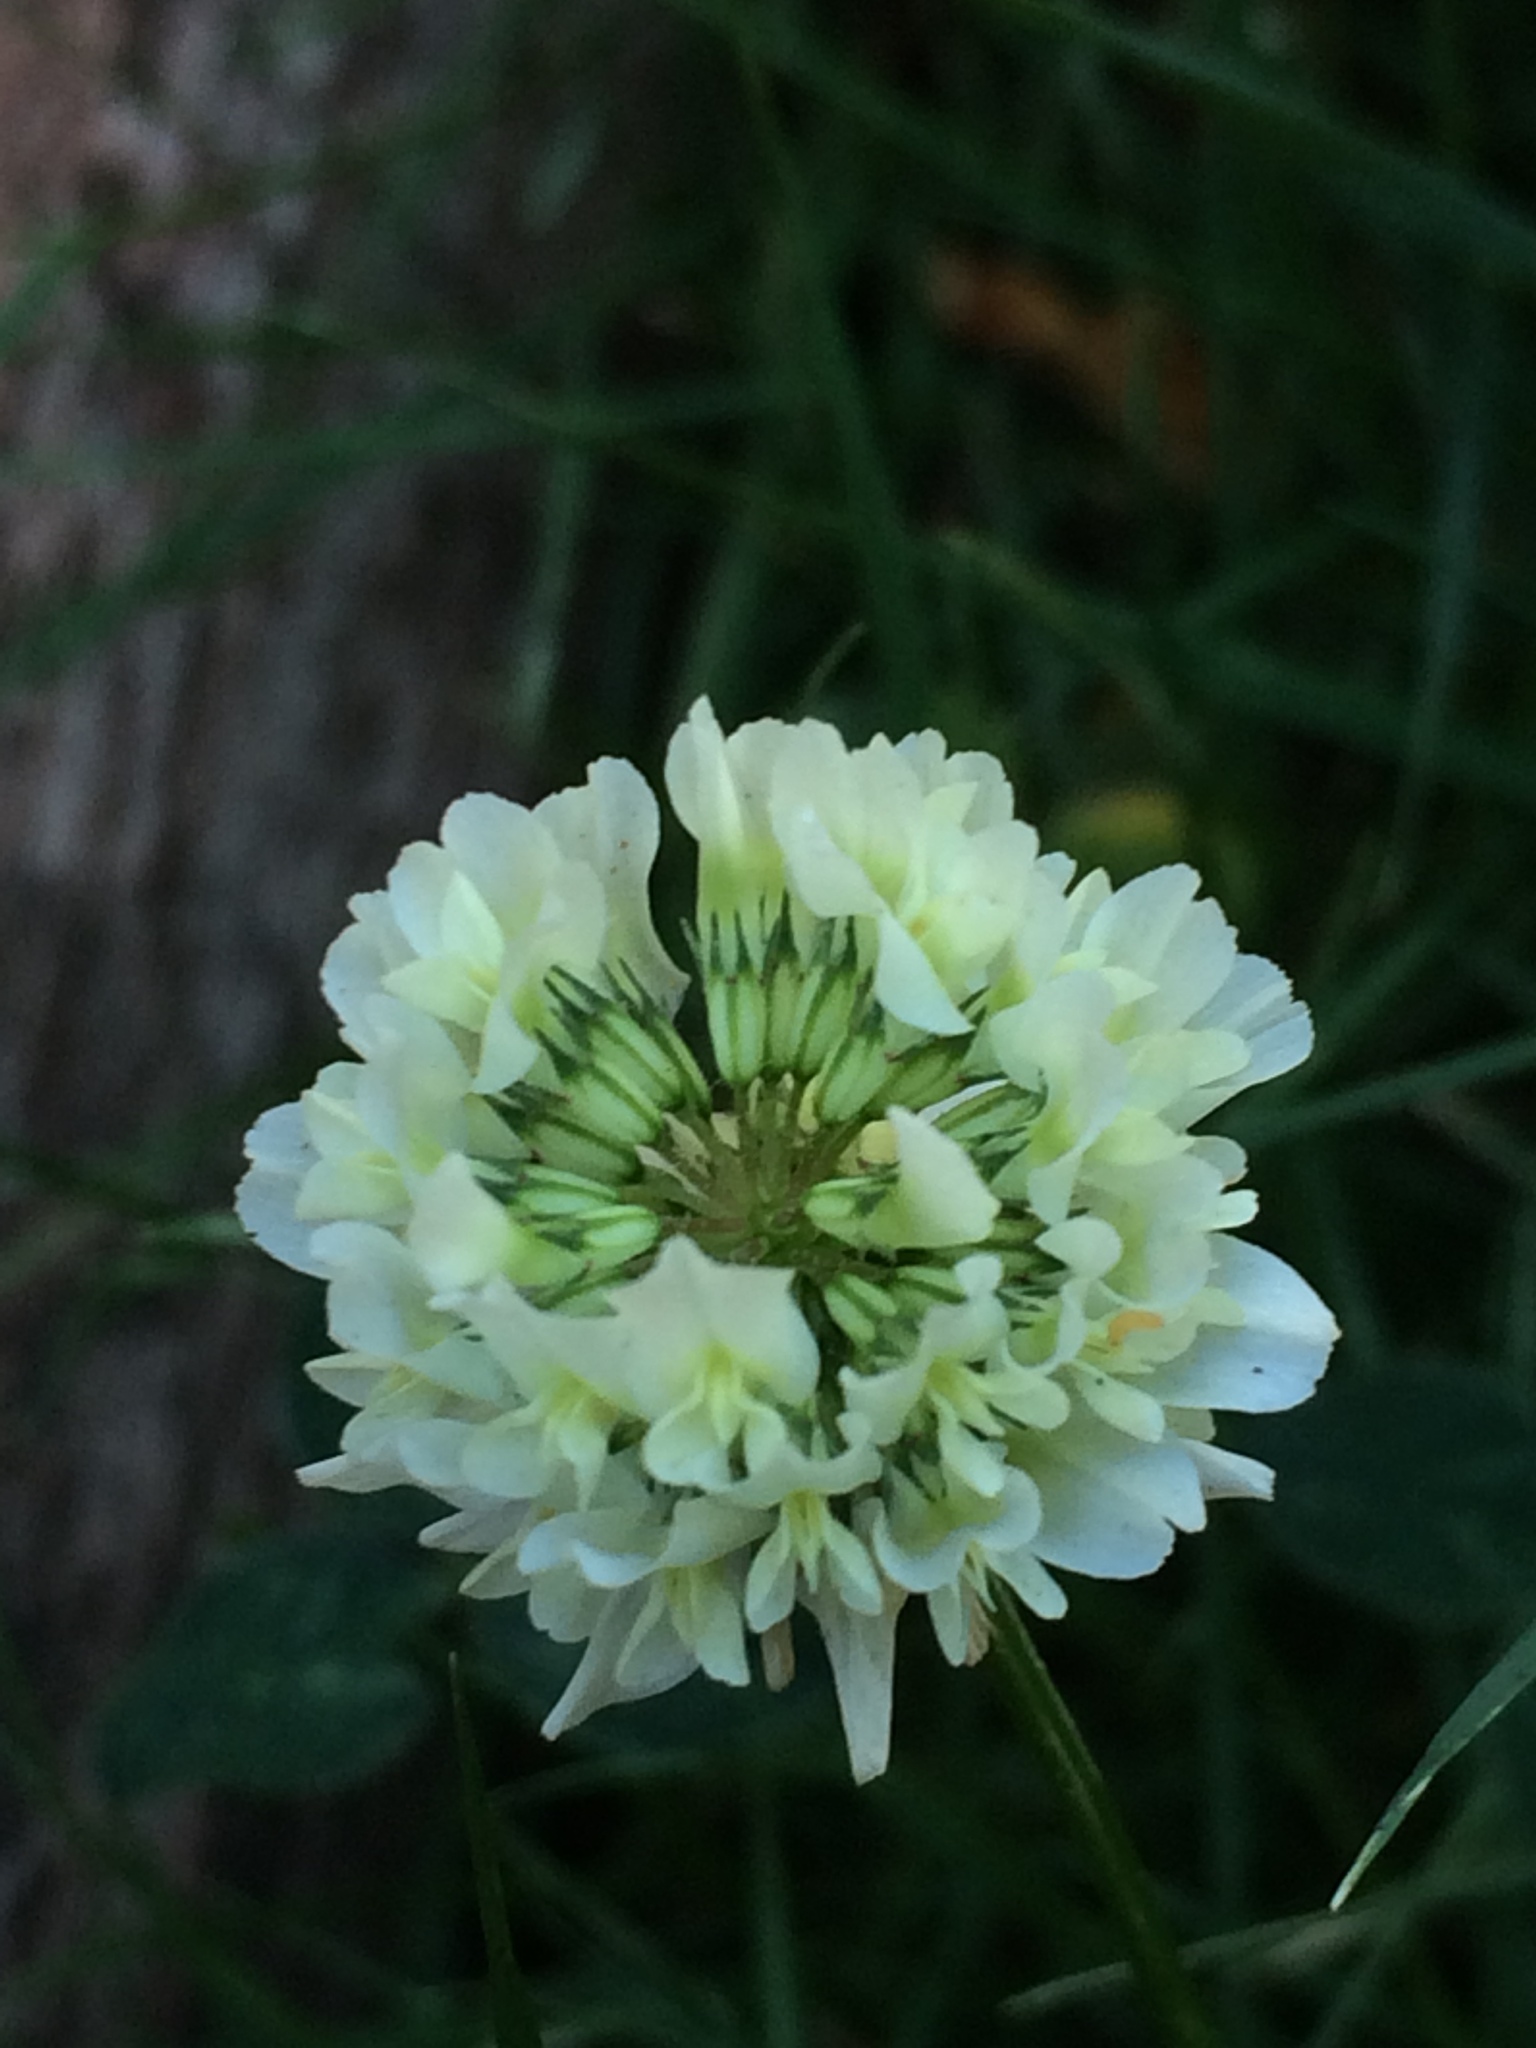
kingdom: Plantae
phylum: Tracheophyta
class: Magnoliopsida
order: Fabales
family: Fabaceae
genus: Trifolium
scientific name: Trifolium repens
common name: White clover
